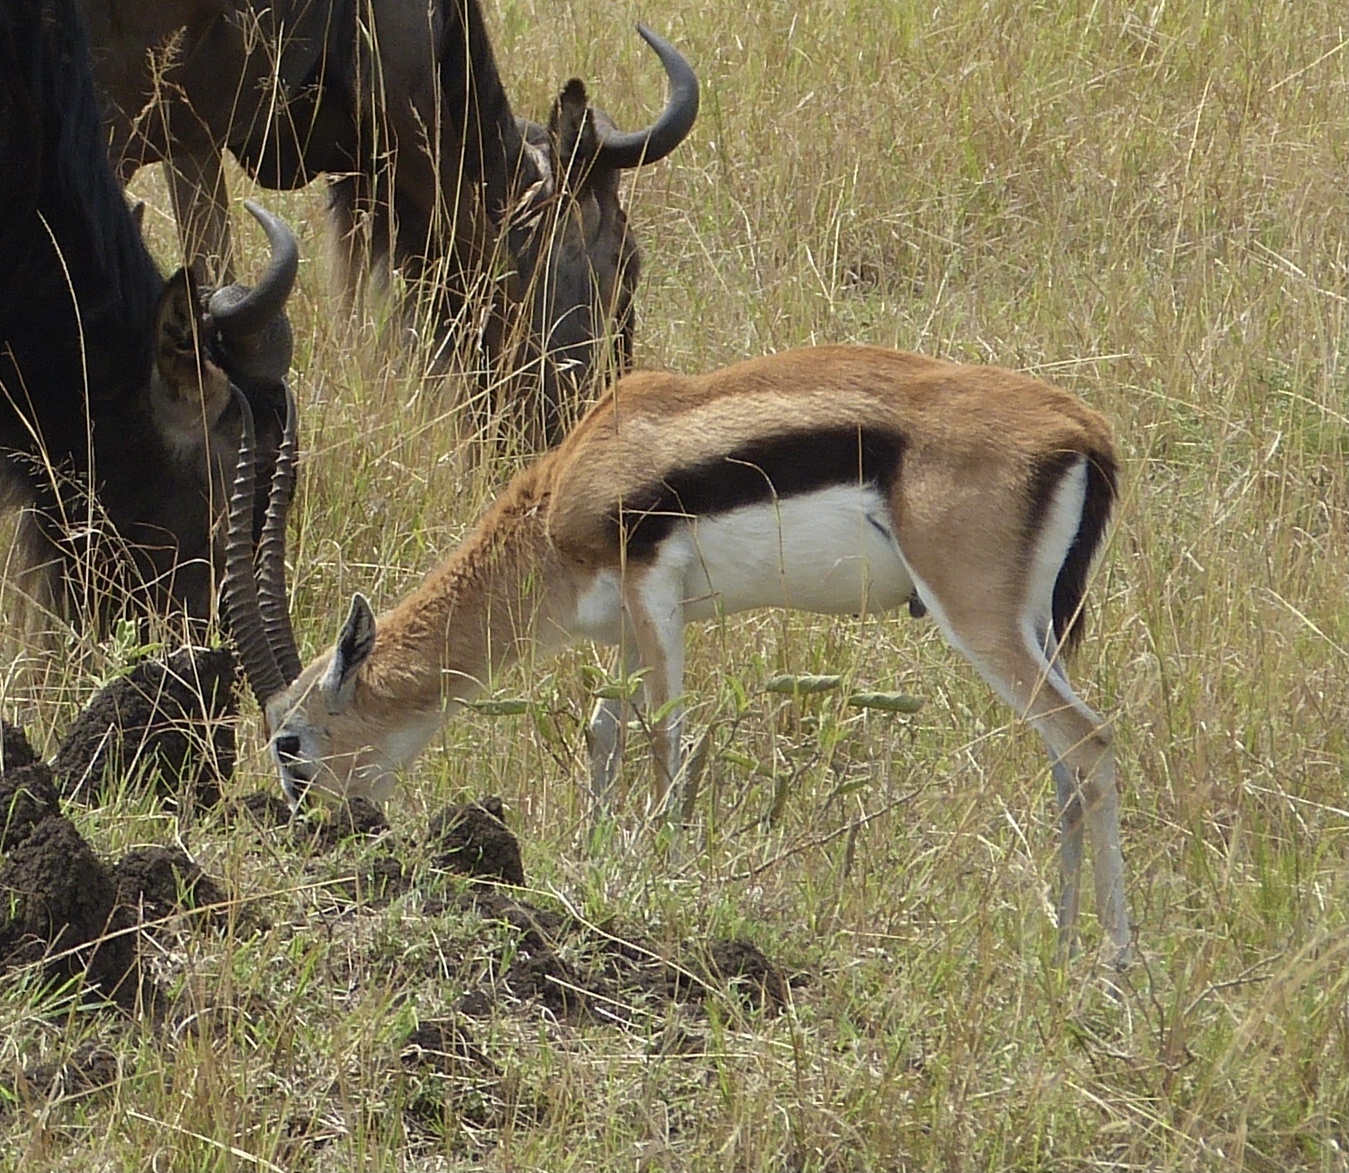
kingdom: Animalia
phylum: Chordata
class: Mammalia
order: Artiodactyla
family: Bovidae
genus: Eudorcas
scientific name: Eudorcas thomsonii
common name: Thomson's gazelle
